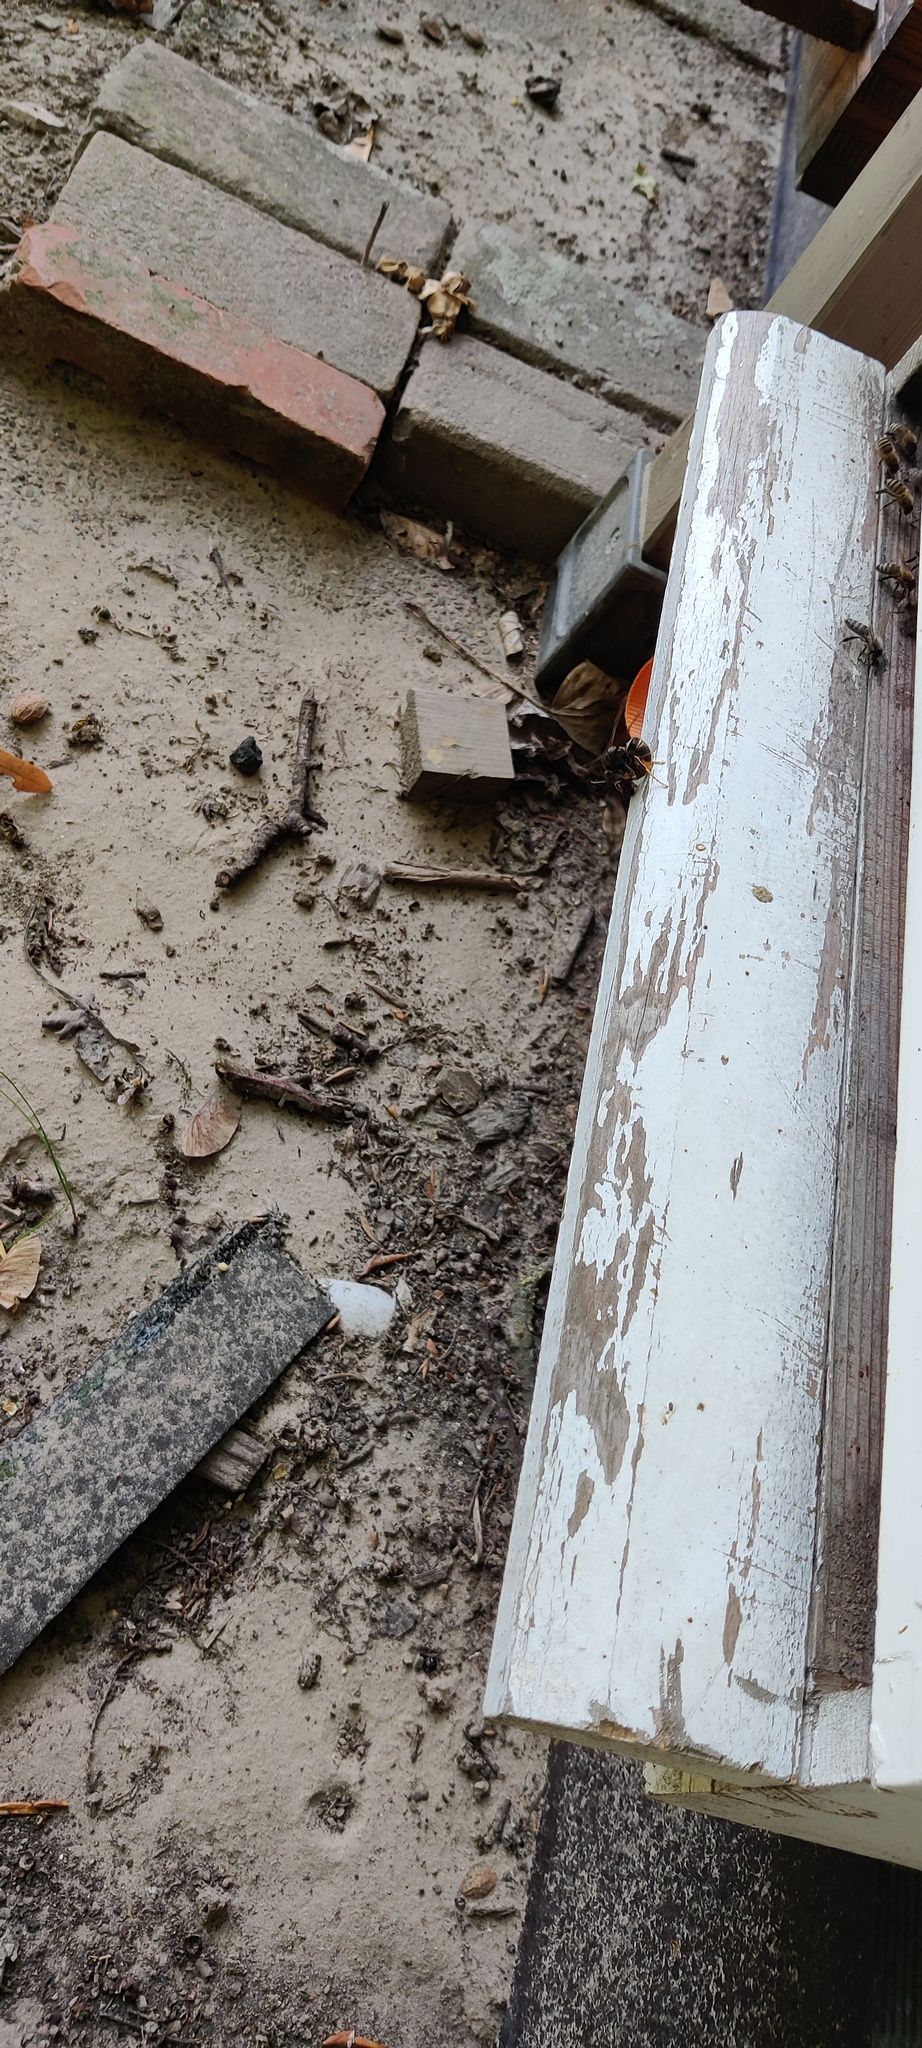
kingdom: Animalia
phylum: Arthropoda
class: Insecta
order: Hymenoptera
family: Vespidae
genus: Vespa
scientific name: Vespa velutina
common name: Asian hornet
